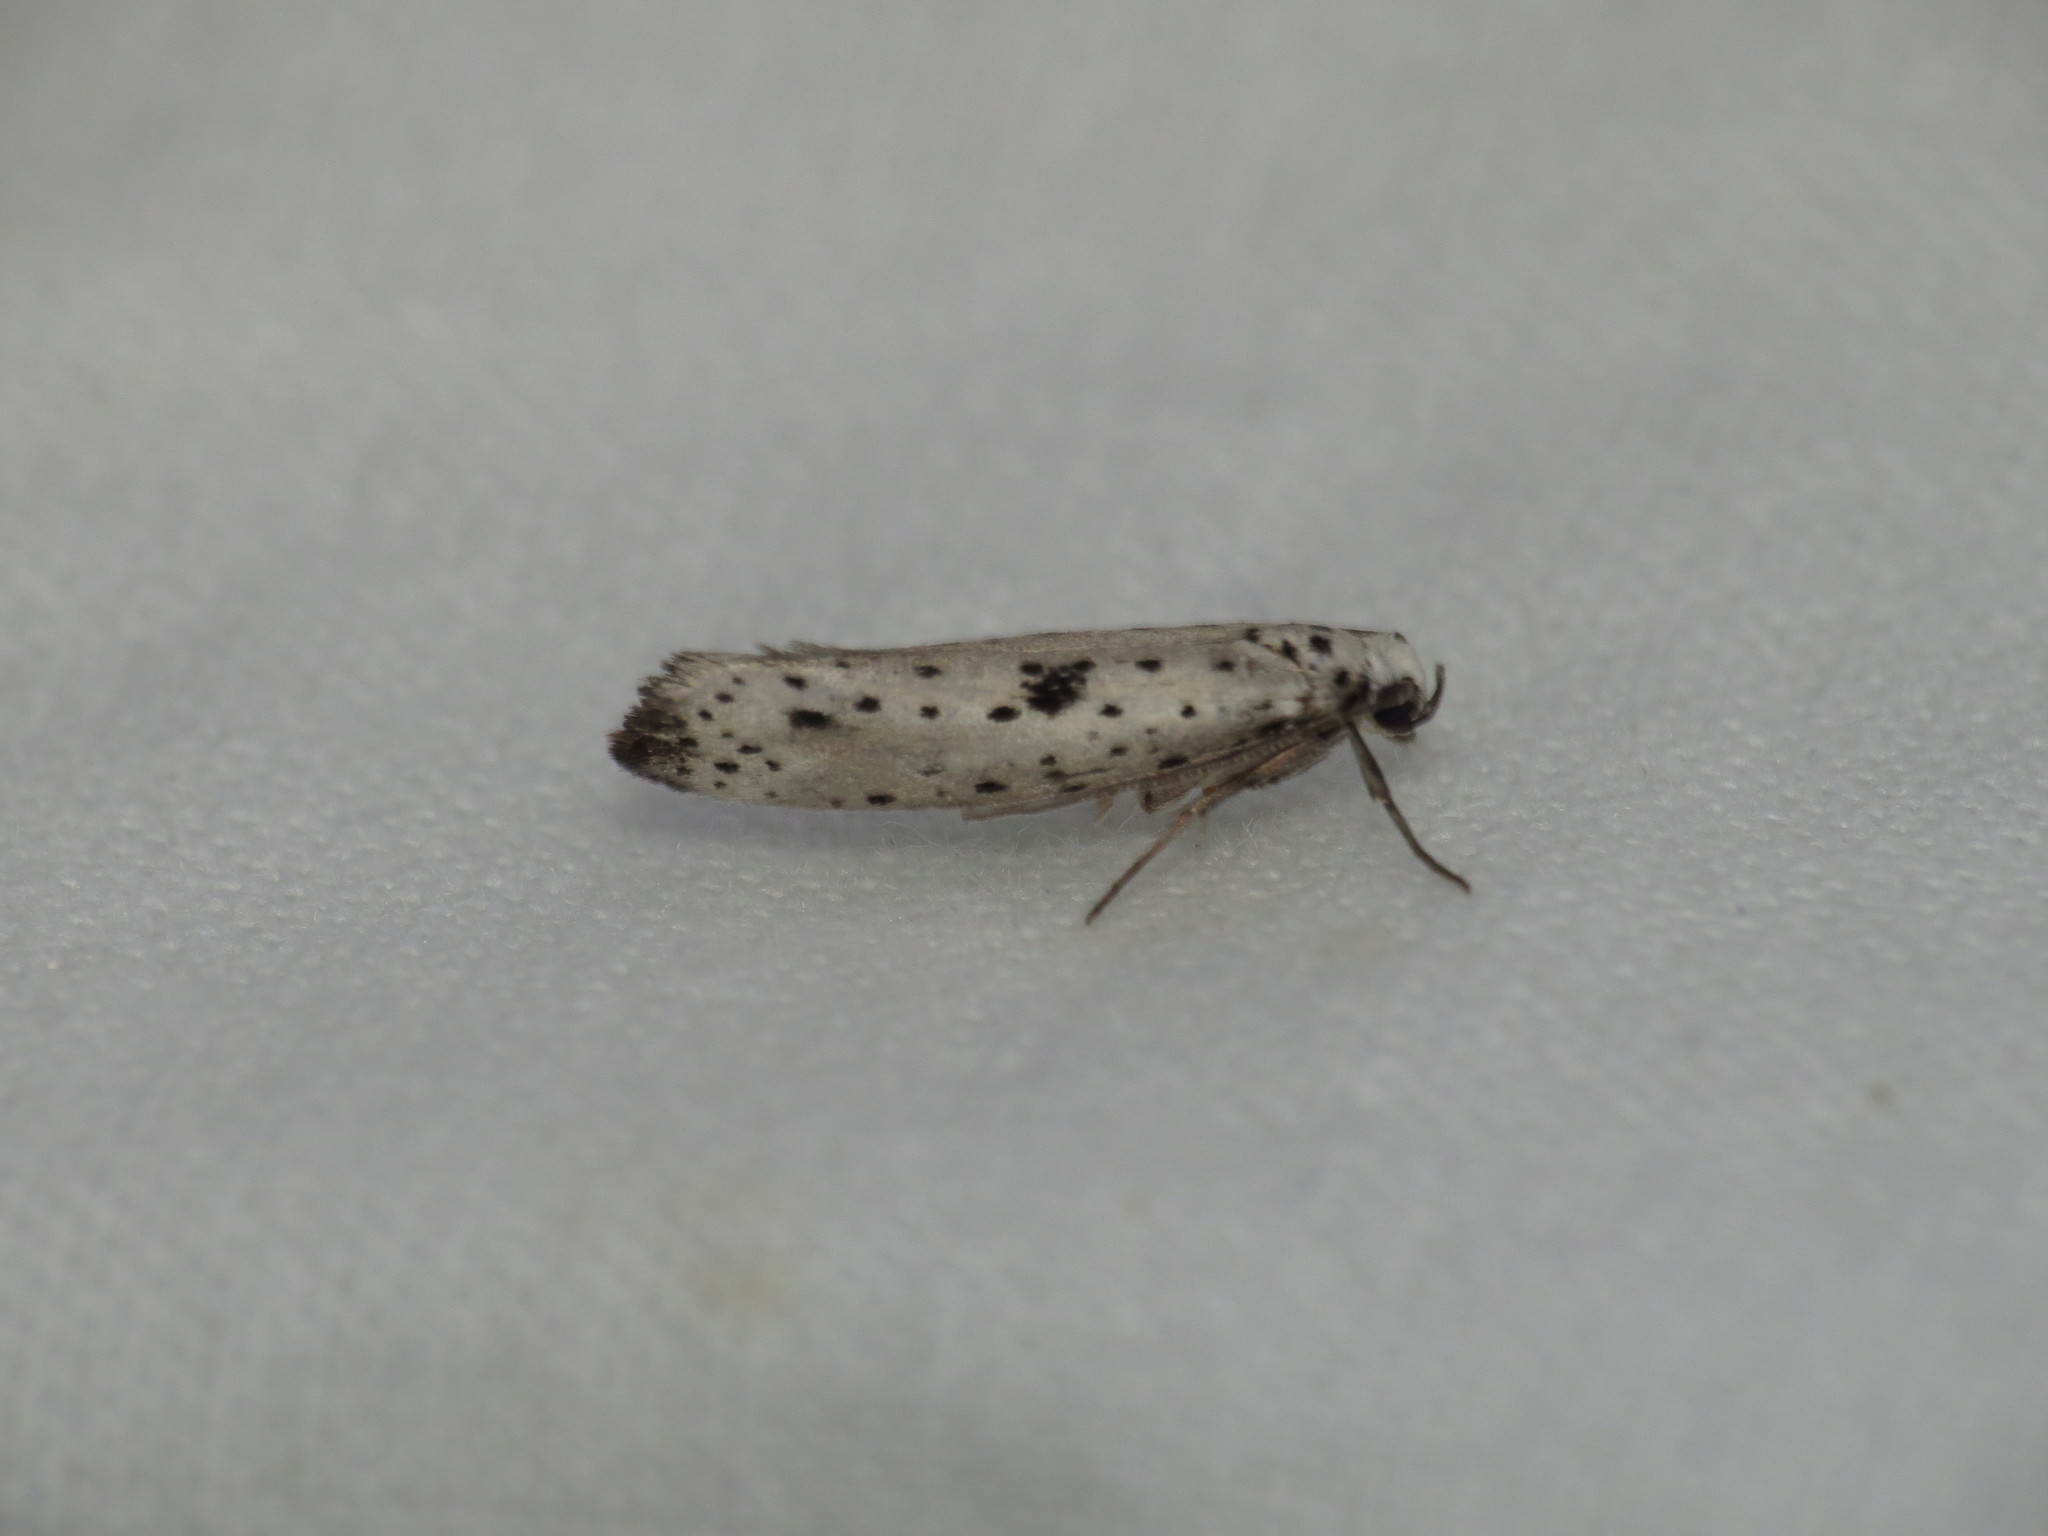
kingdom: Animalia
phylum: Arthropoda
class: Insecta
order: Lepidoptera
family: Yponomeutidae
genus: Yponomeuta
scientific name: Yponomeuta plumbella
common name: Black-tipped ermine
